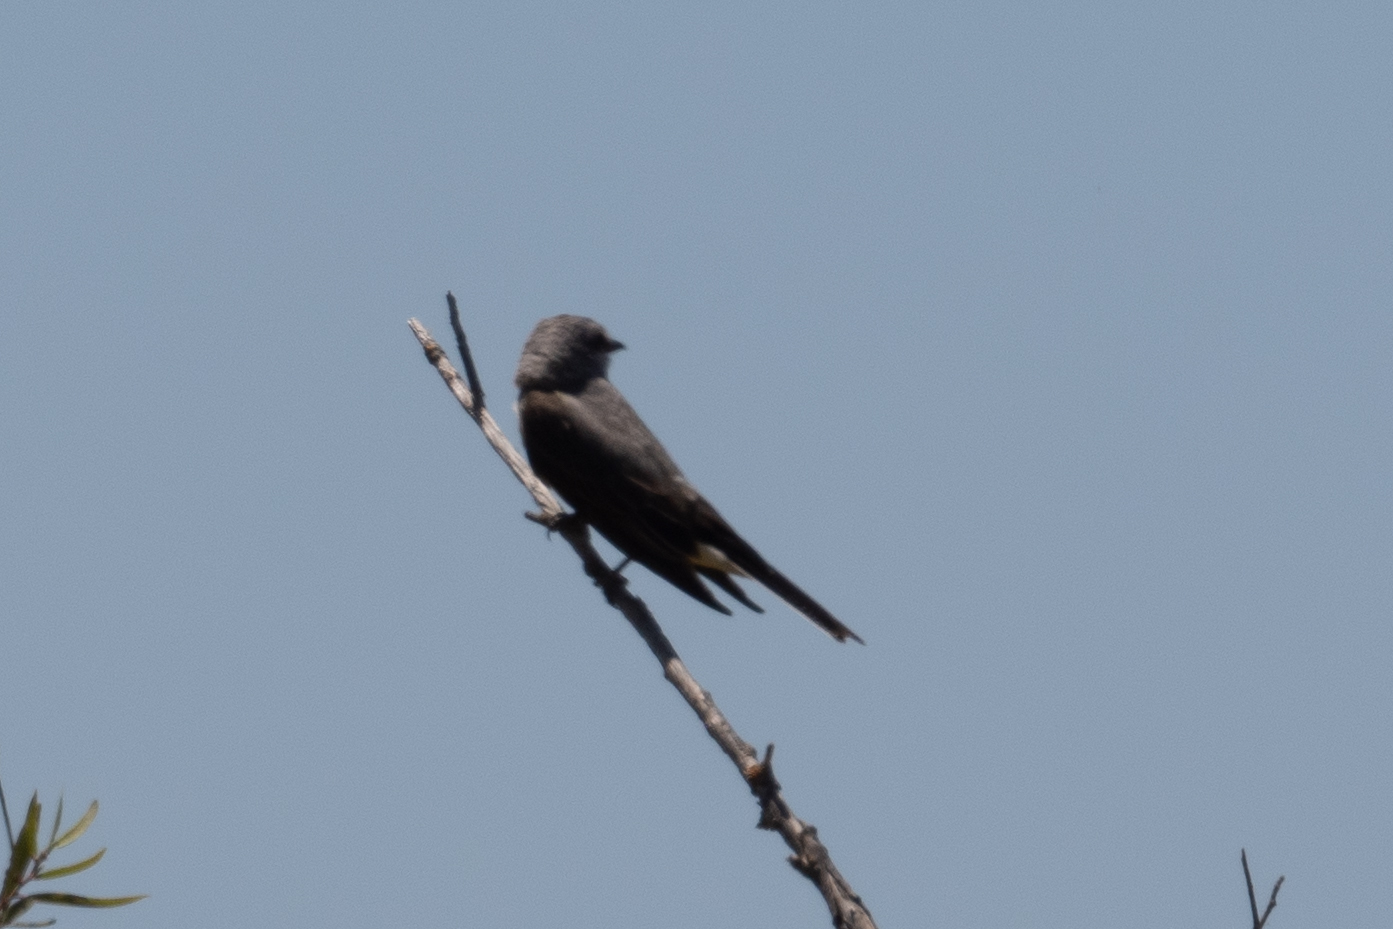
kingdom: Animalia
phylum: Chordata
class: Aves
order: Passeriformes
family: Tyrannidae
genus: Tyrannus
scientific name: Tyrannus verticalis
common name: Western kingbird
